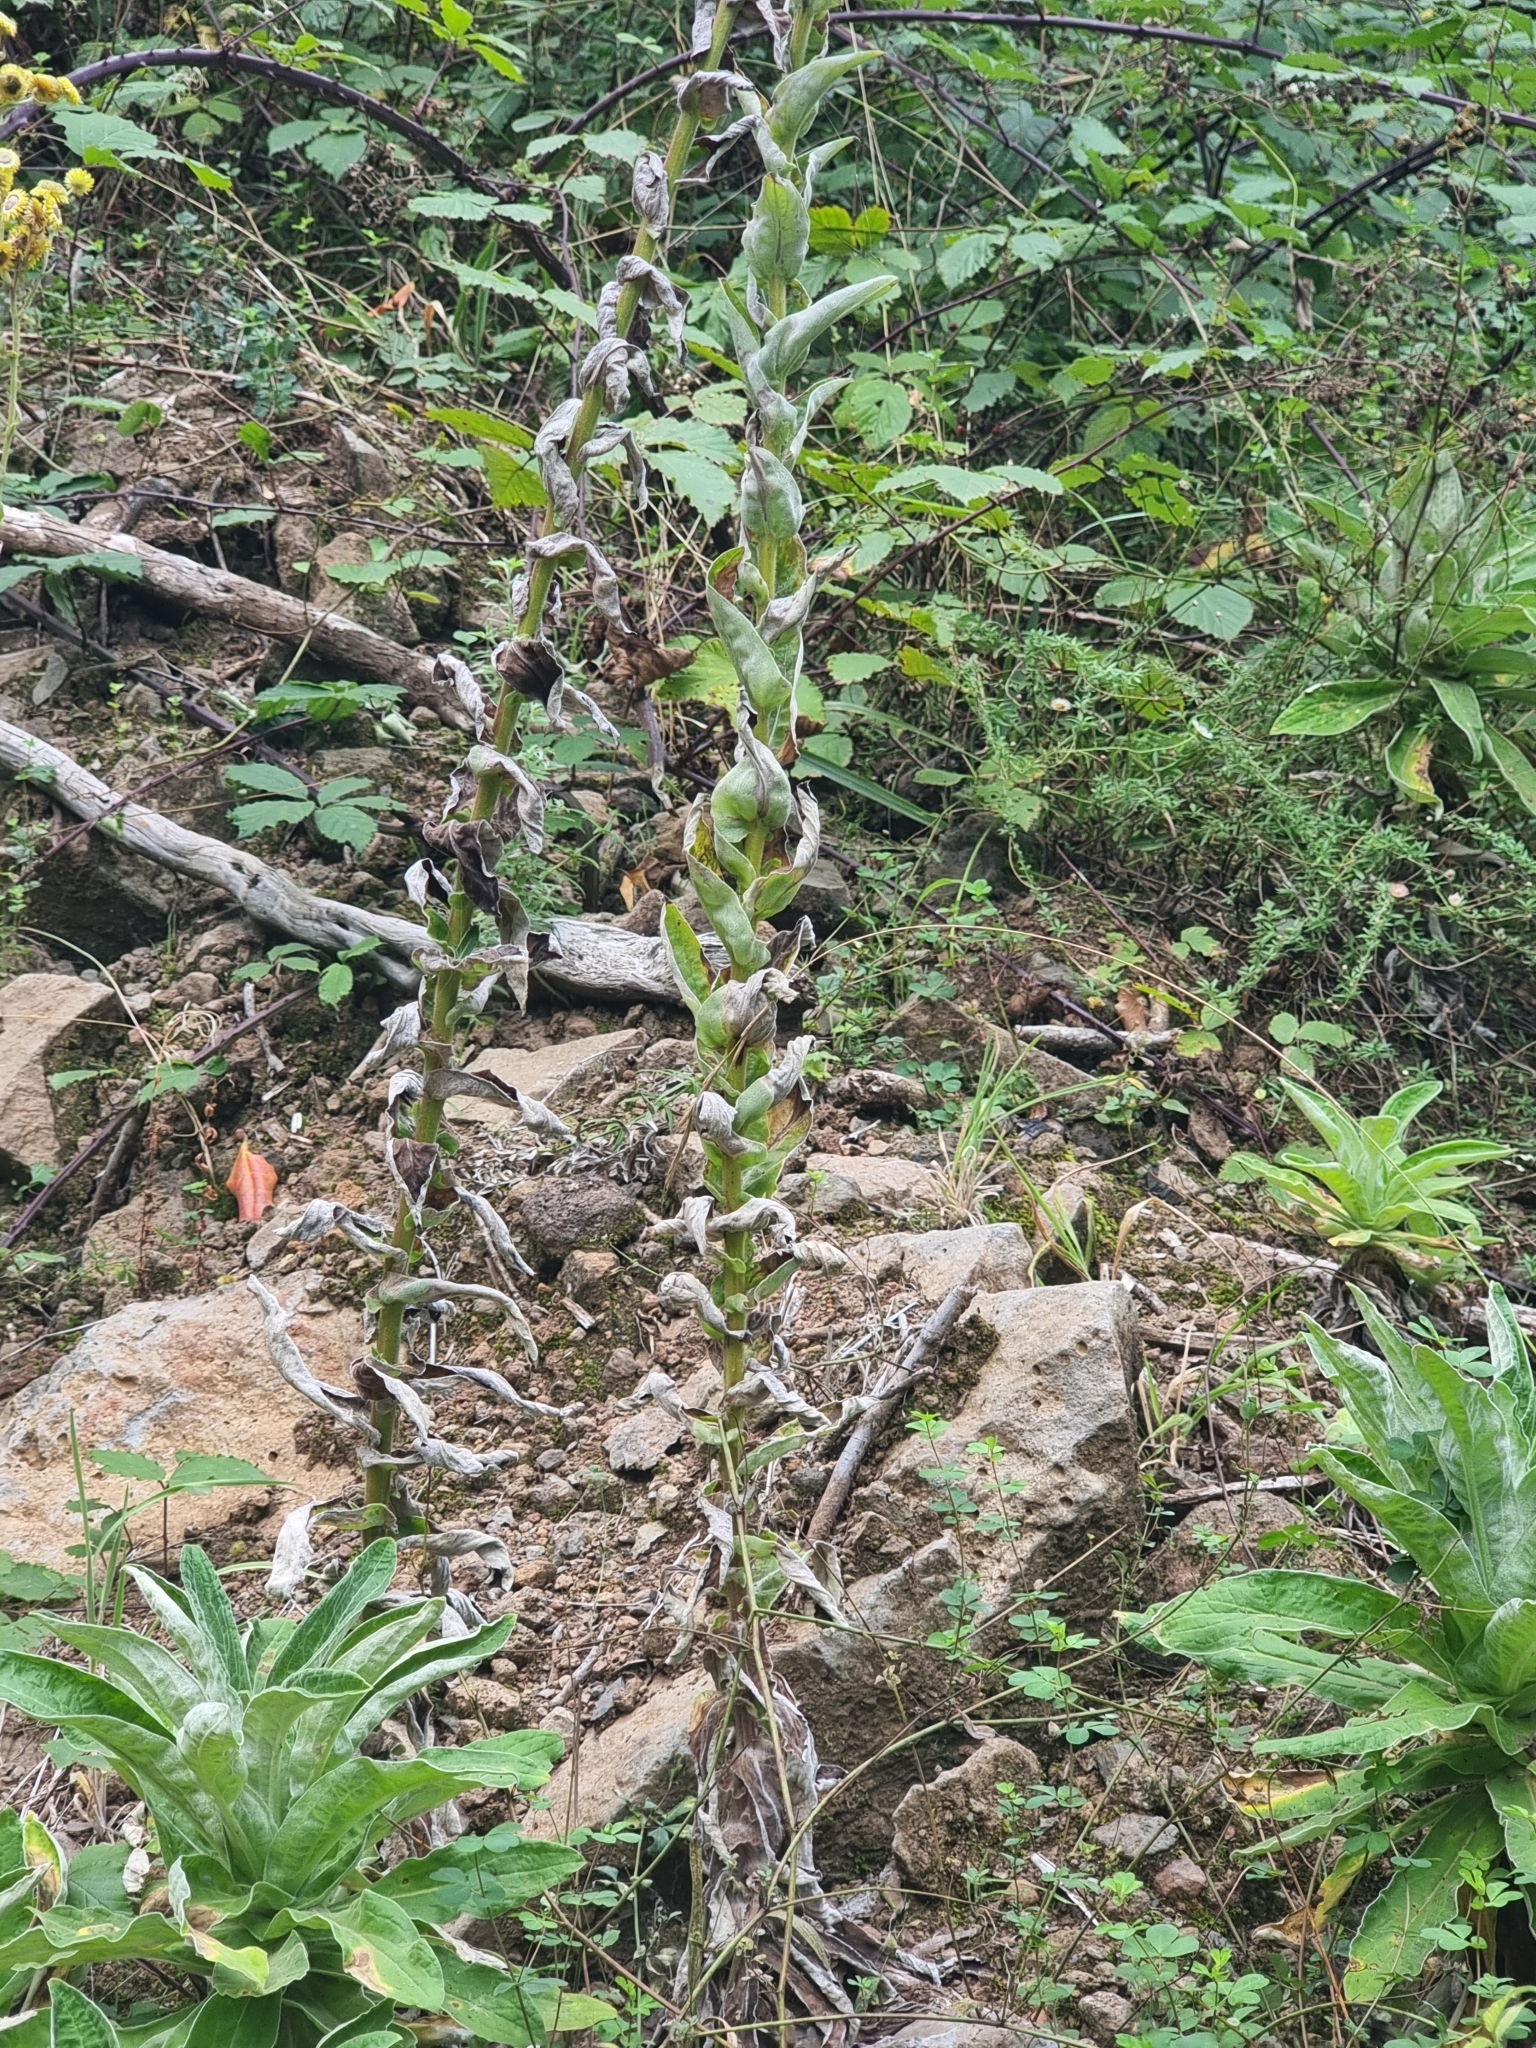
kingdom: Plantae
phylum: Tracheophyta
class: Magnoliopsida
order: Asterales
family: Asteraceae
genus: Helichrysum
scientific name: Helichrysum foetidum
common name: Stinking everlasting
